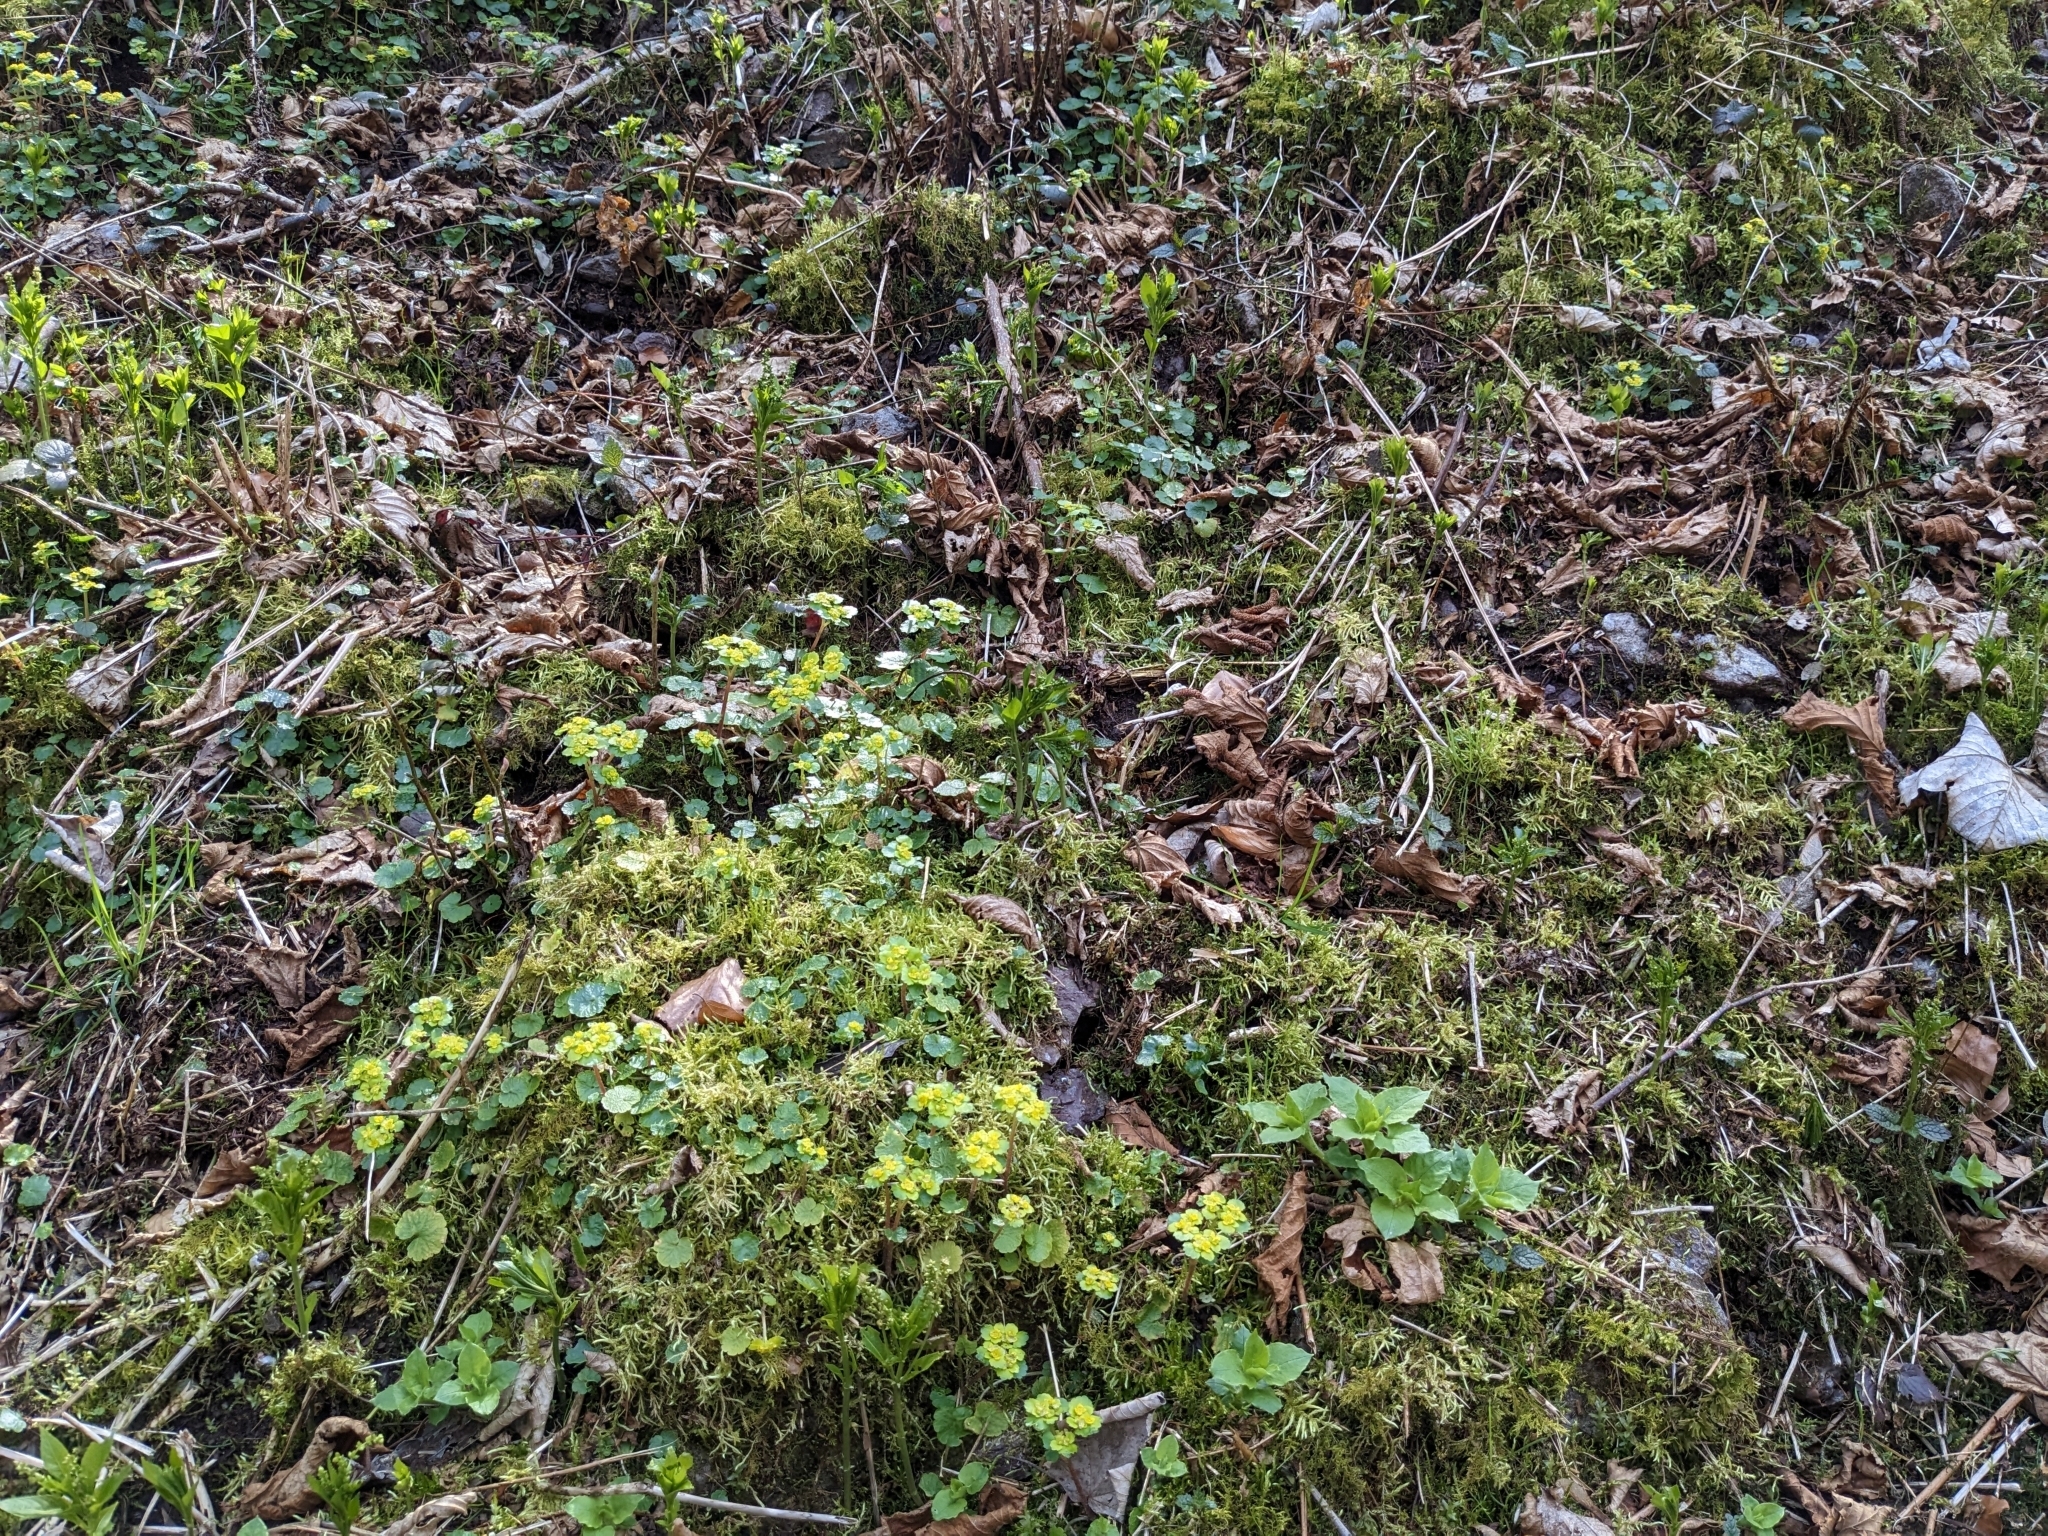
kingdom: Plantae
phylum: Tracheophyta
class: Magnoliopsida
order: Saxifragales
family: Saxifragaceae
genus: Chrysosplenium
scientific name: Chrysosplenium alternifolium
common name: Alternate-leaved golden-saxifrage
